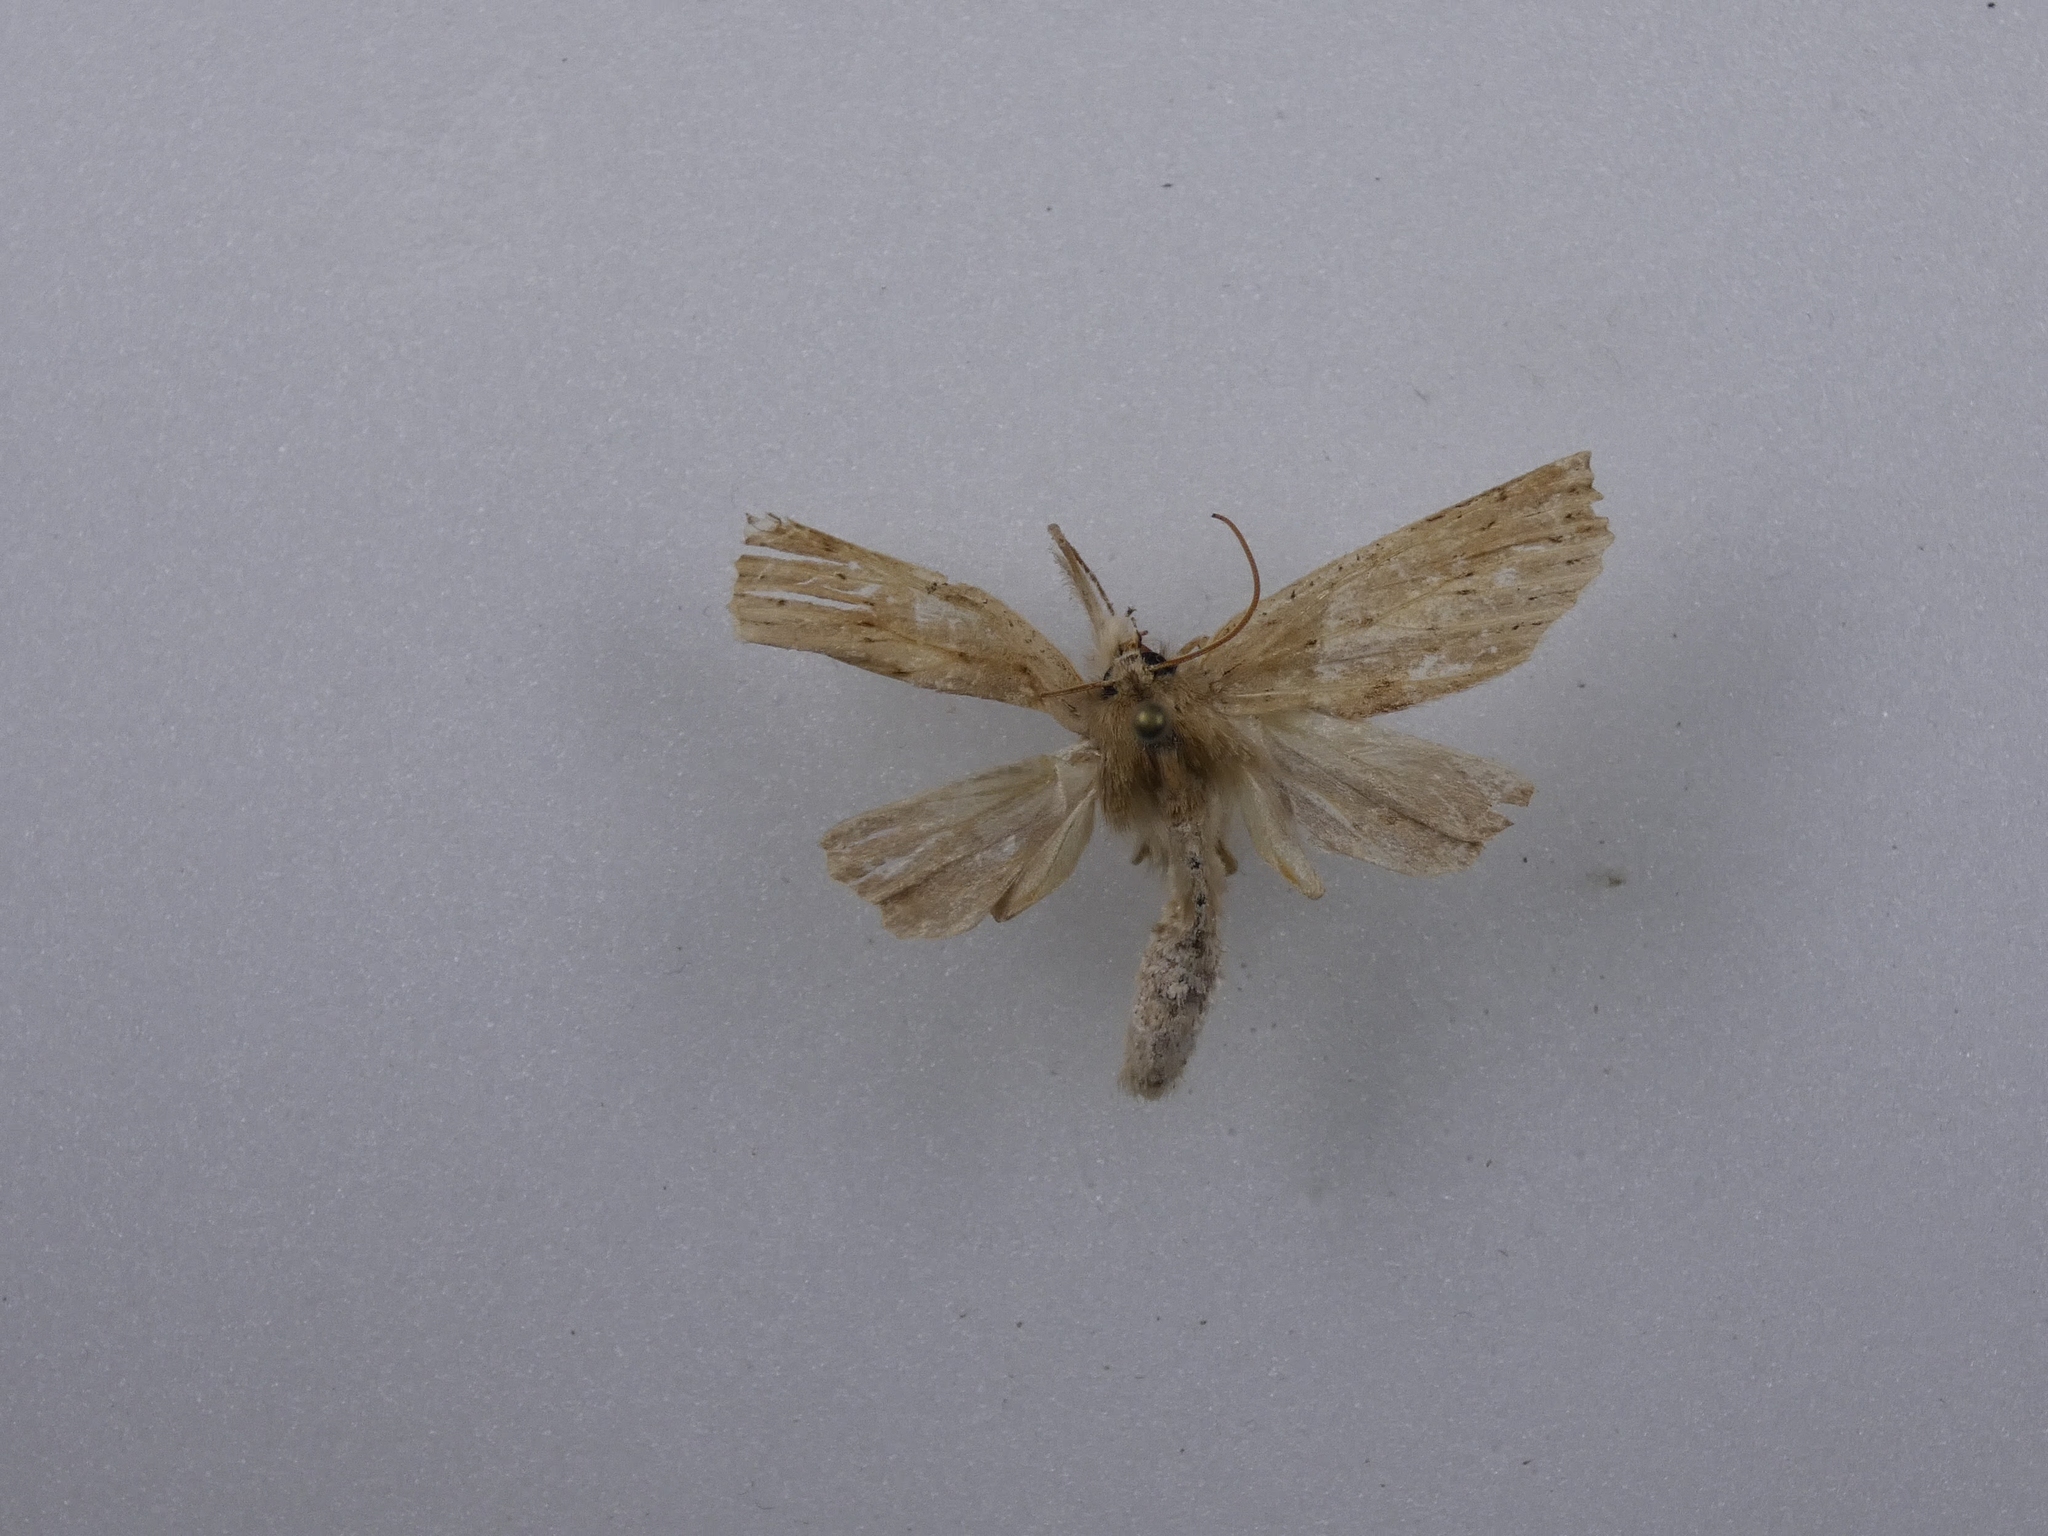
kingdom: Animalia
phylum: Arthropoda
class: Insecta
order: Lepidoptera
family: Geometridae
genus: Declana
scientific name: Declana leptomera
